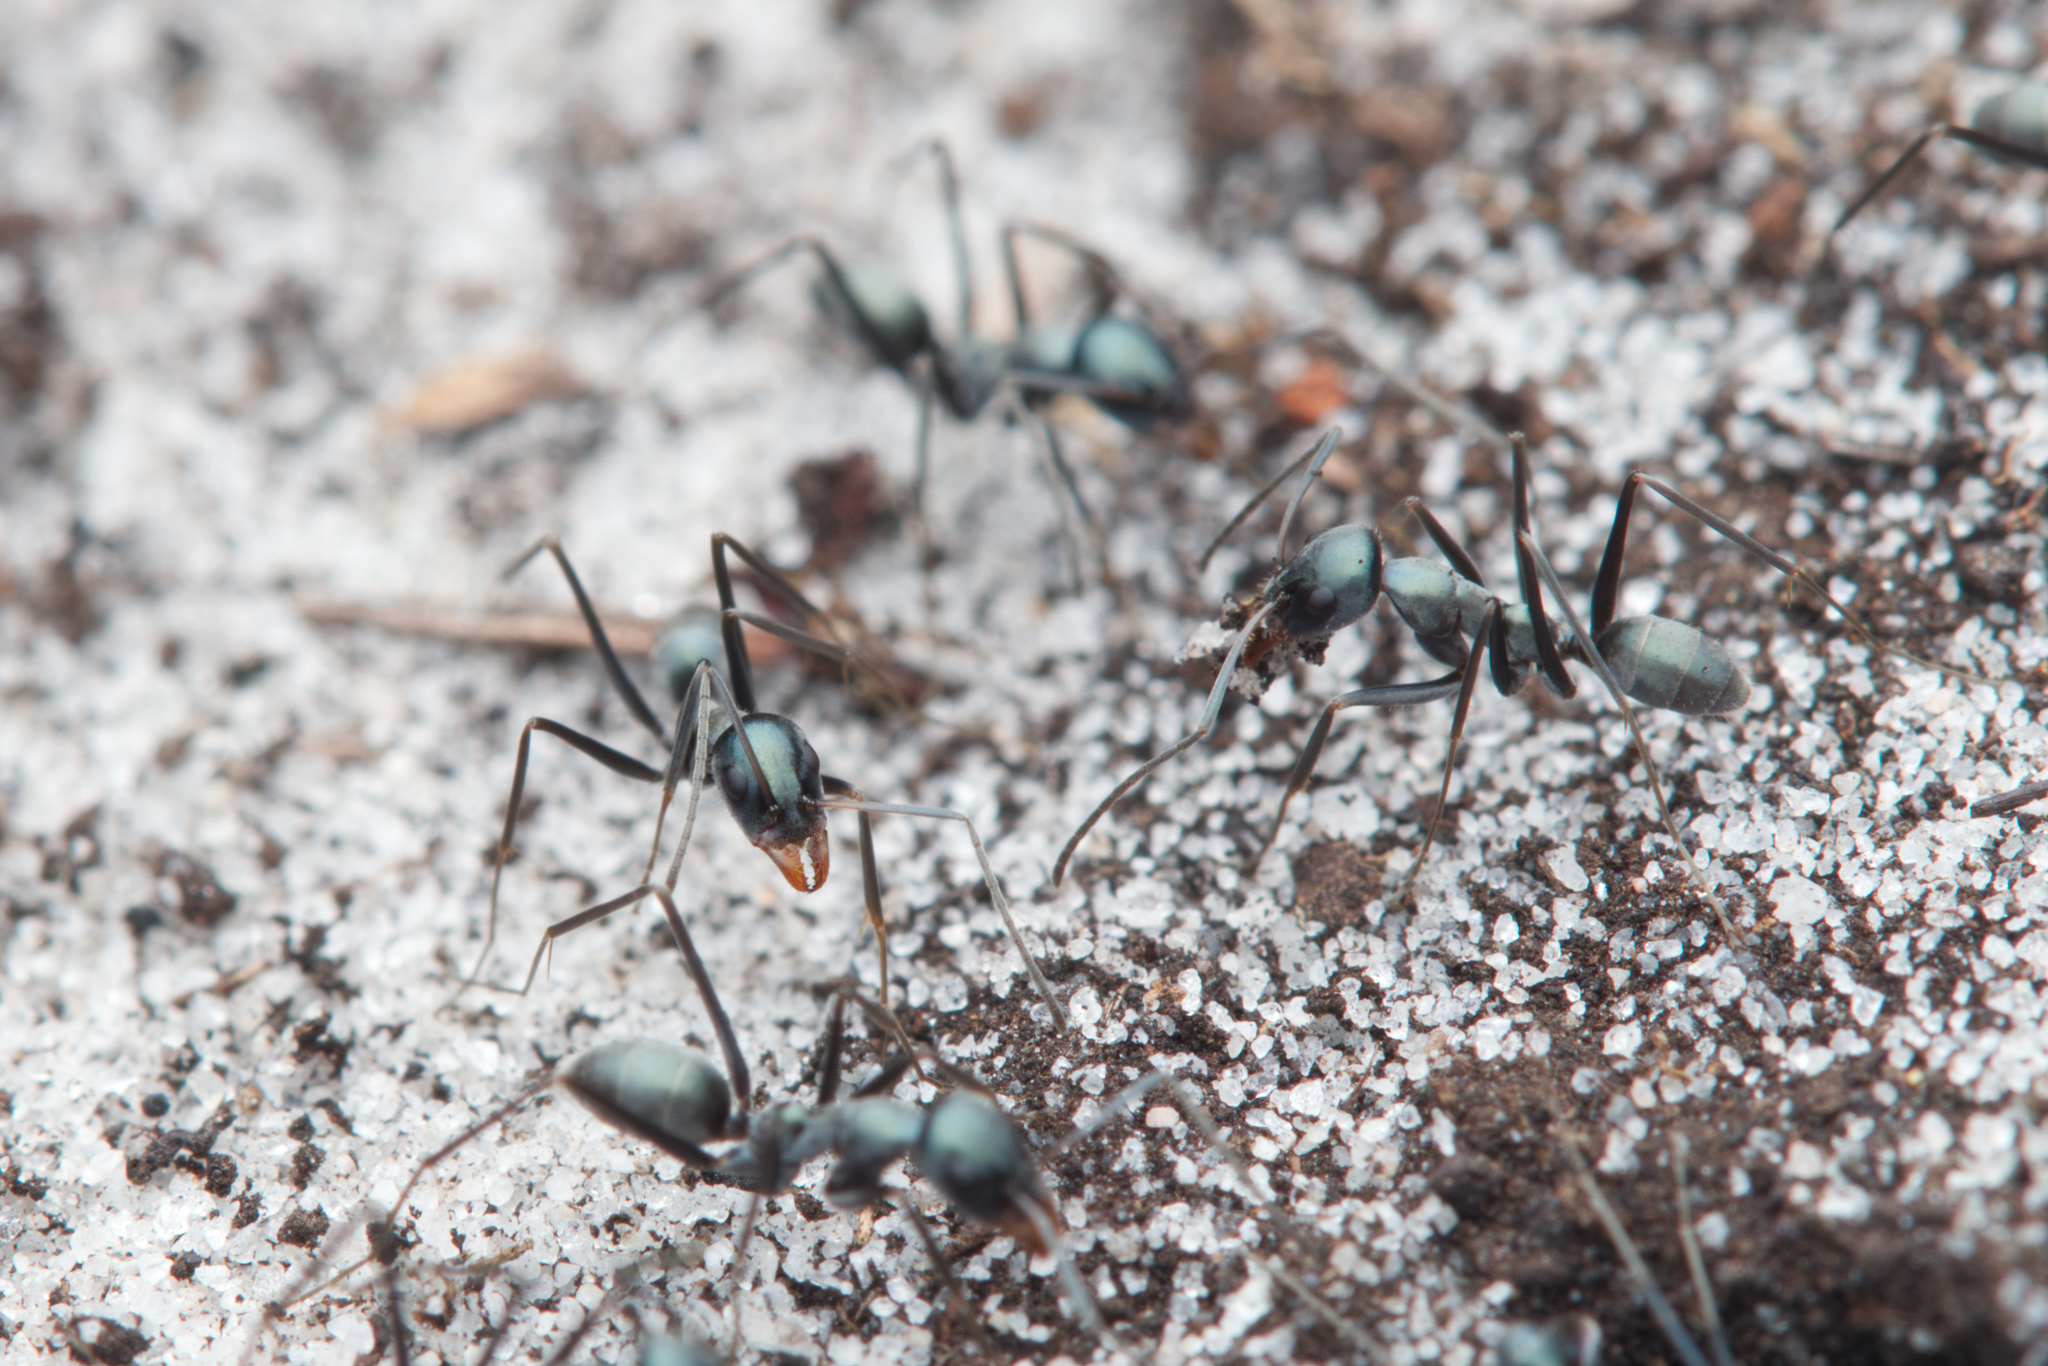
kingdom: Animalia
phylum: Arthropoda
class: Insecta
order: Hymenoptera
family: Formicidae
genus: Iridomyrmex
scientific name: Iridomyrmex bicknelli
